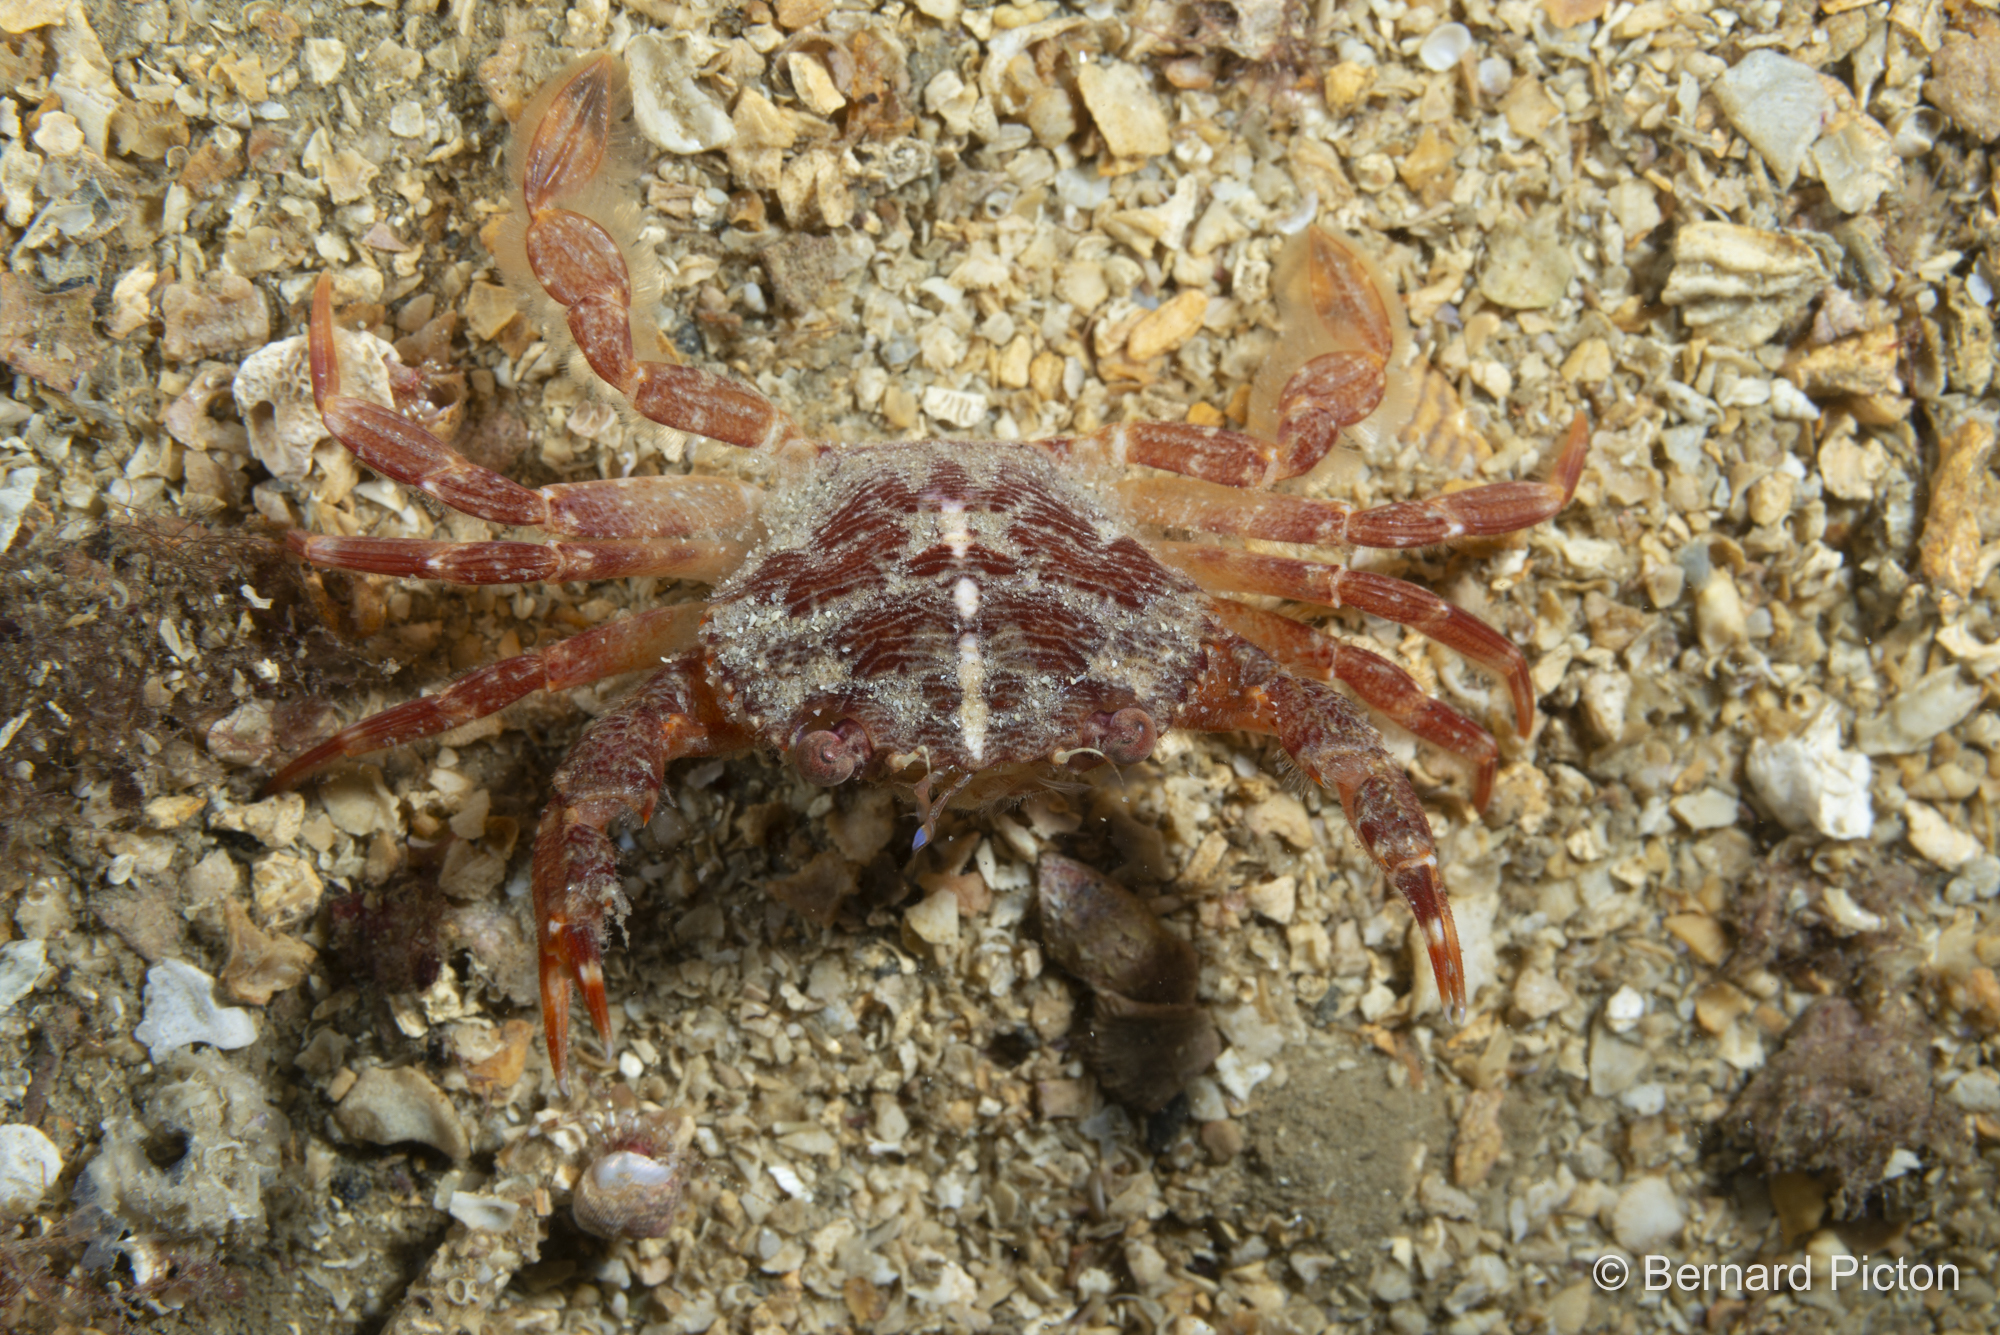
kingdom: Animalia
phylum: Arthropoda
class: Malacostraca
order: Decapoda
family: Polybiidae
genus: Liocarcinus
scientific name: Liocarcinus corrugatus
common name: Wrinkled swimming crab
